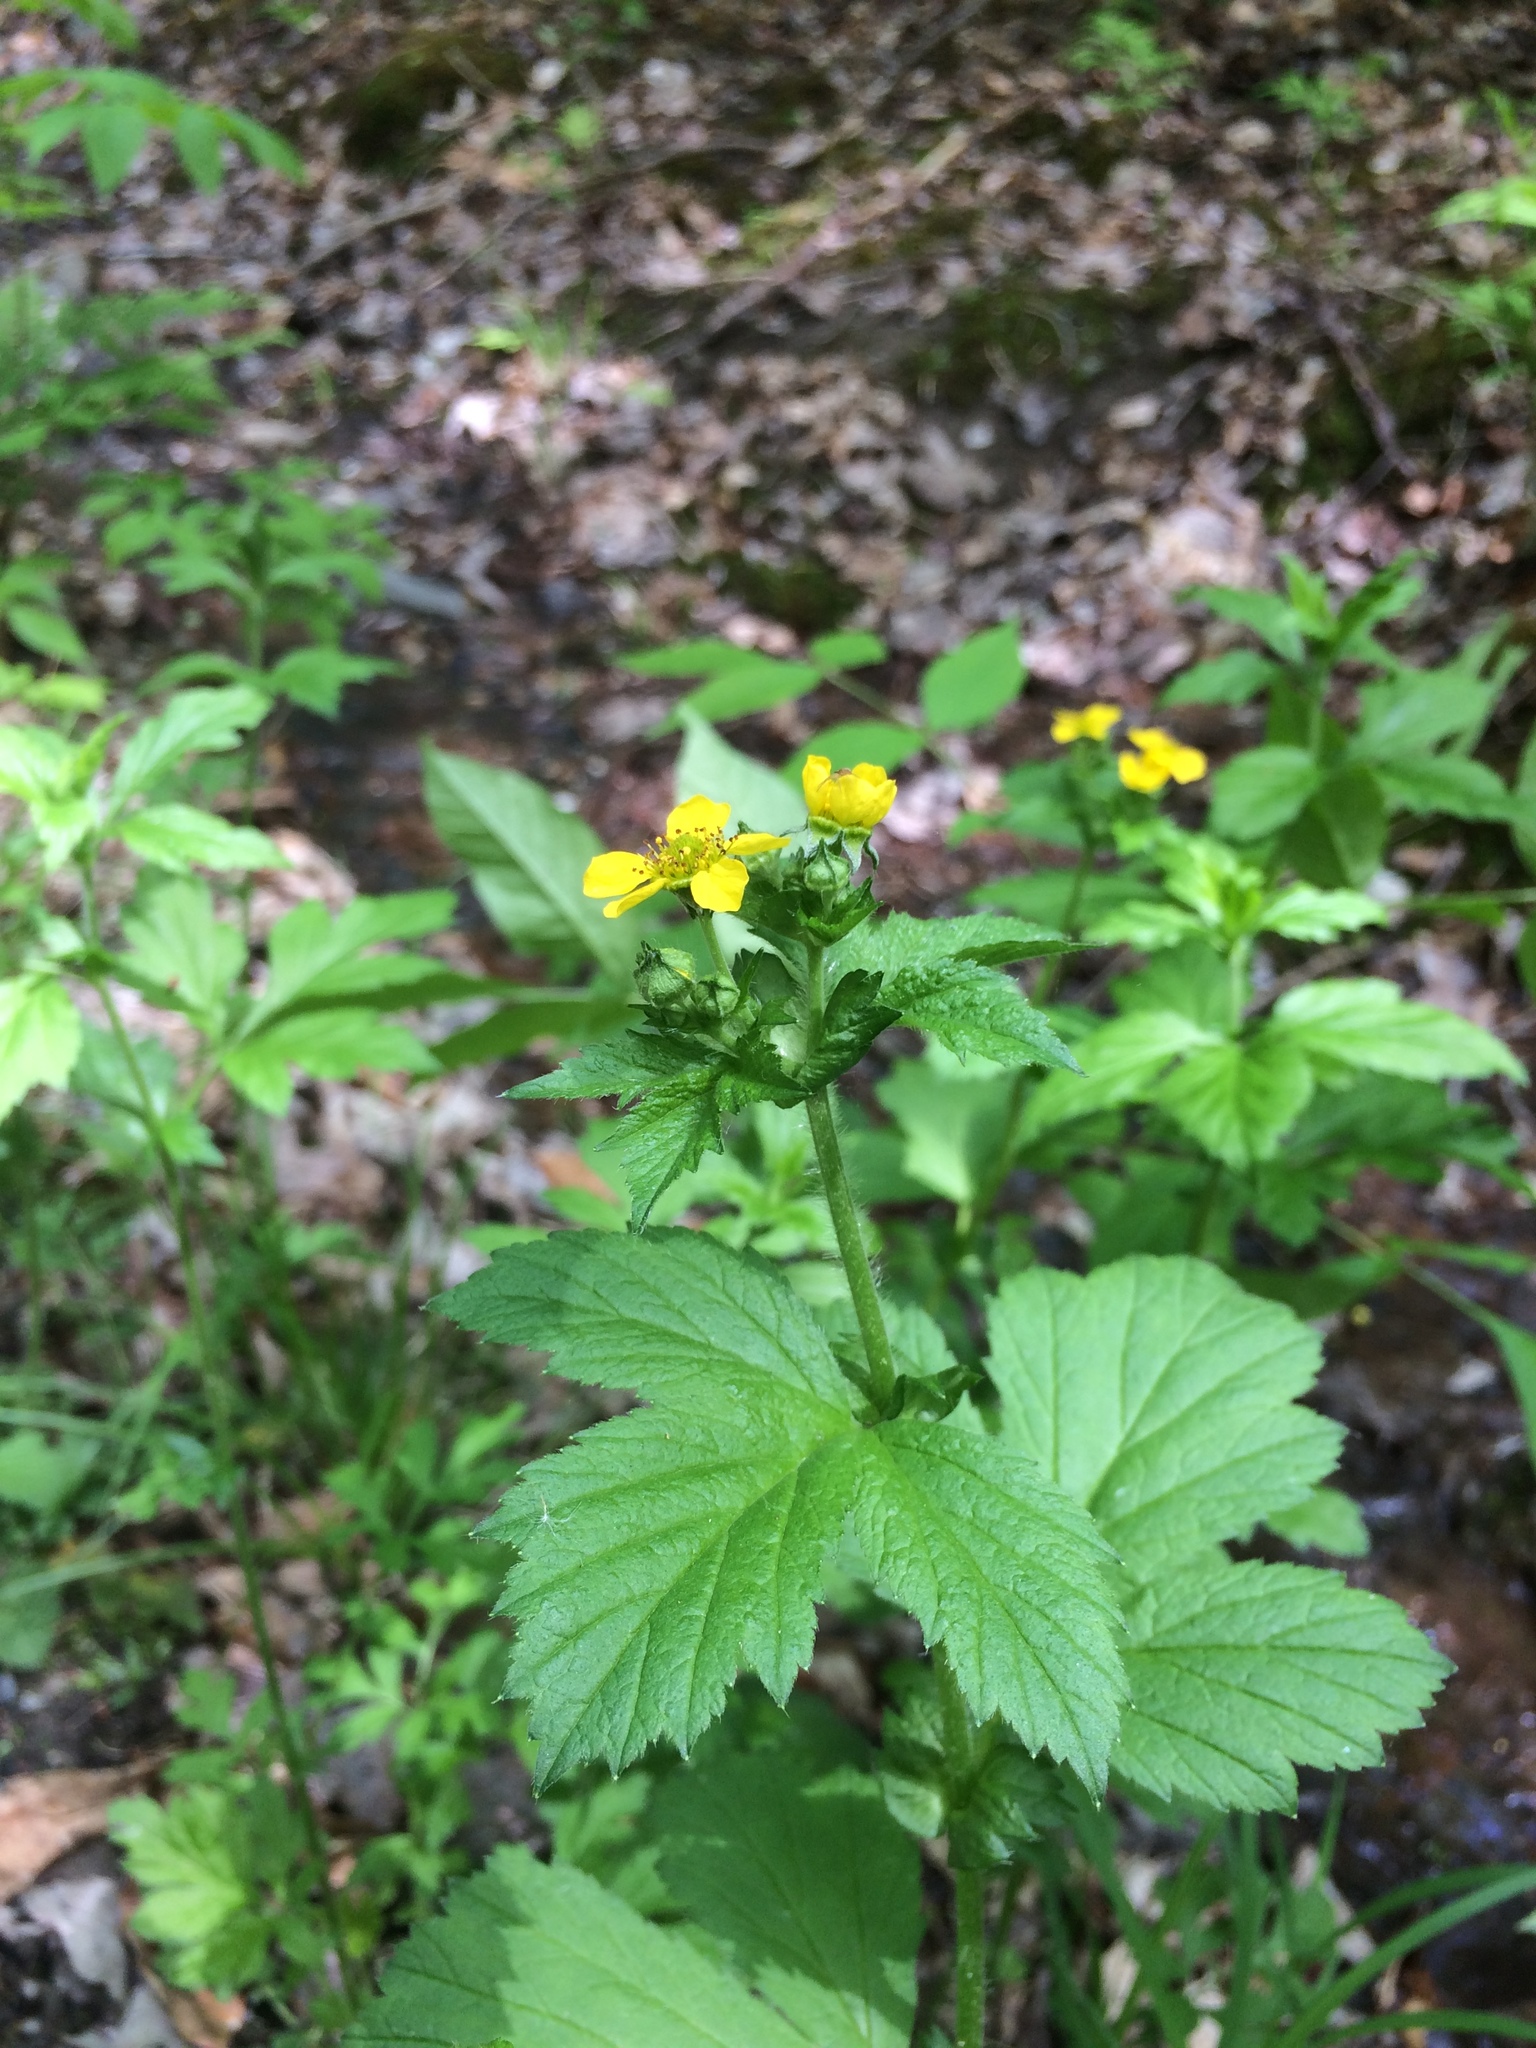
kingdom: Plantae
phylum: Tracheophyta
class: Magnoliopsida
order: Rosales
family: Rosaceae
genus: Geum
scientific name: Geum macrophyllum
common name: Large-leaved avens
